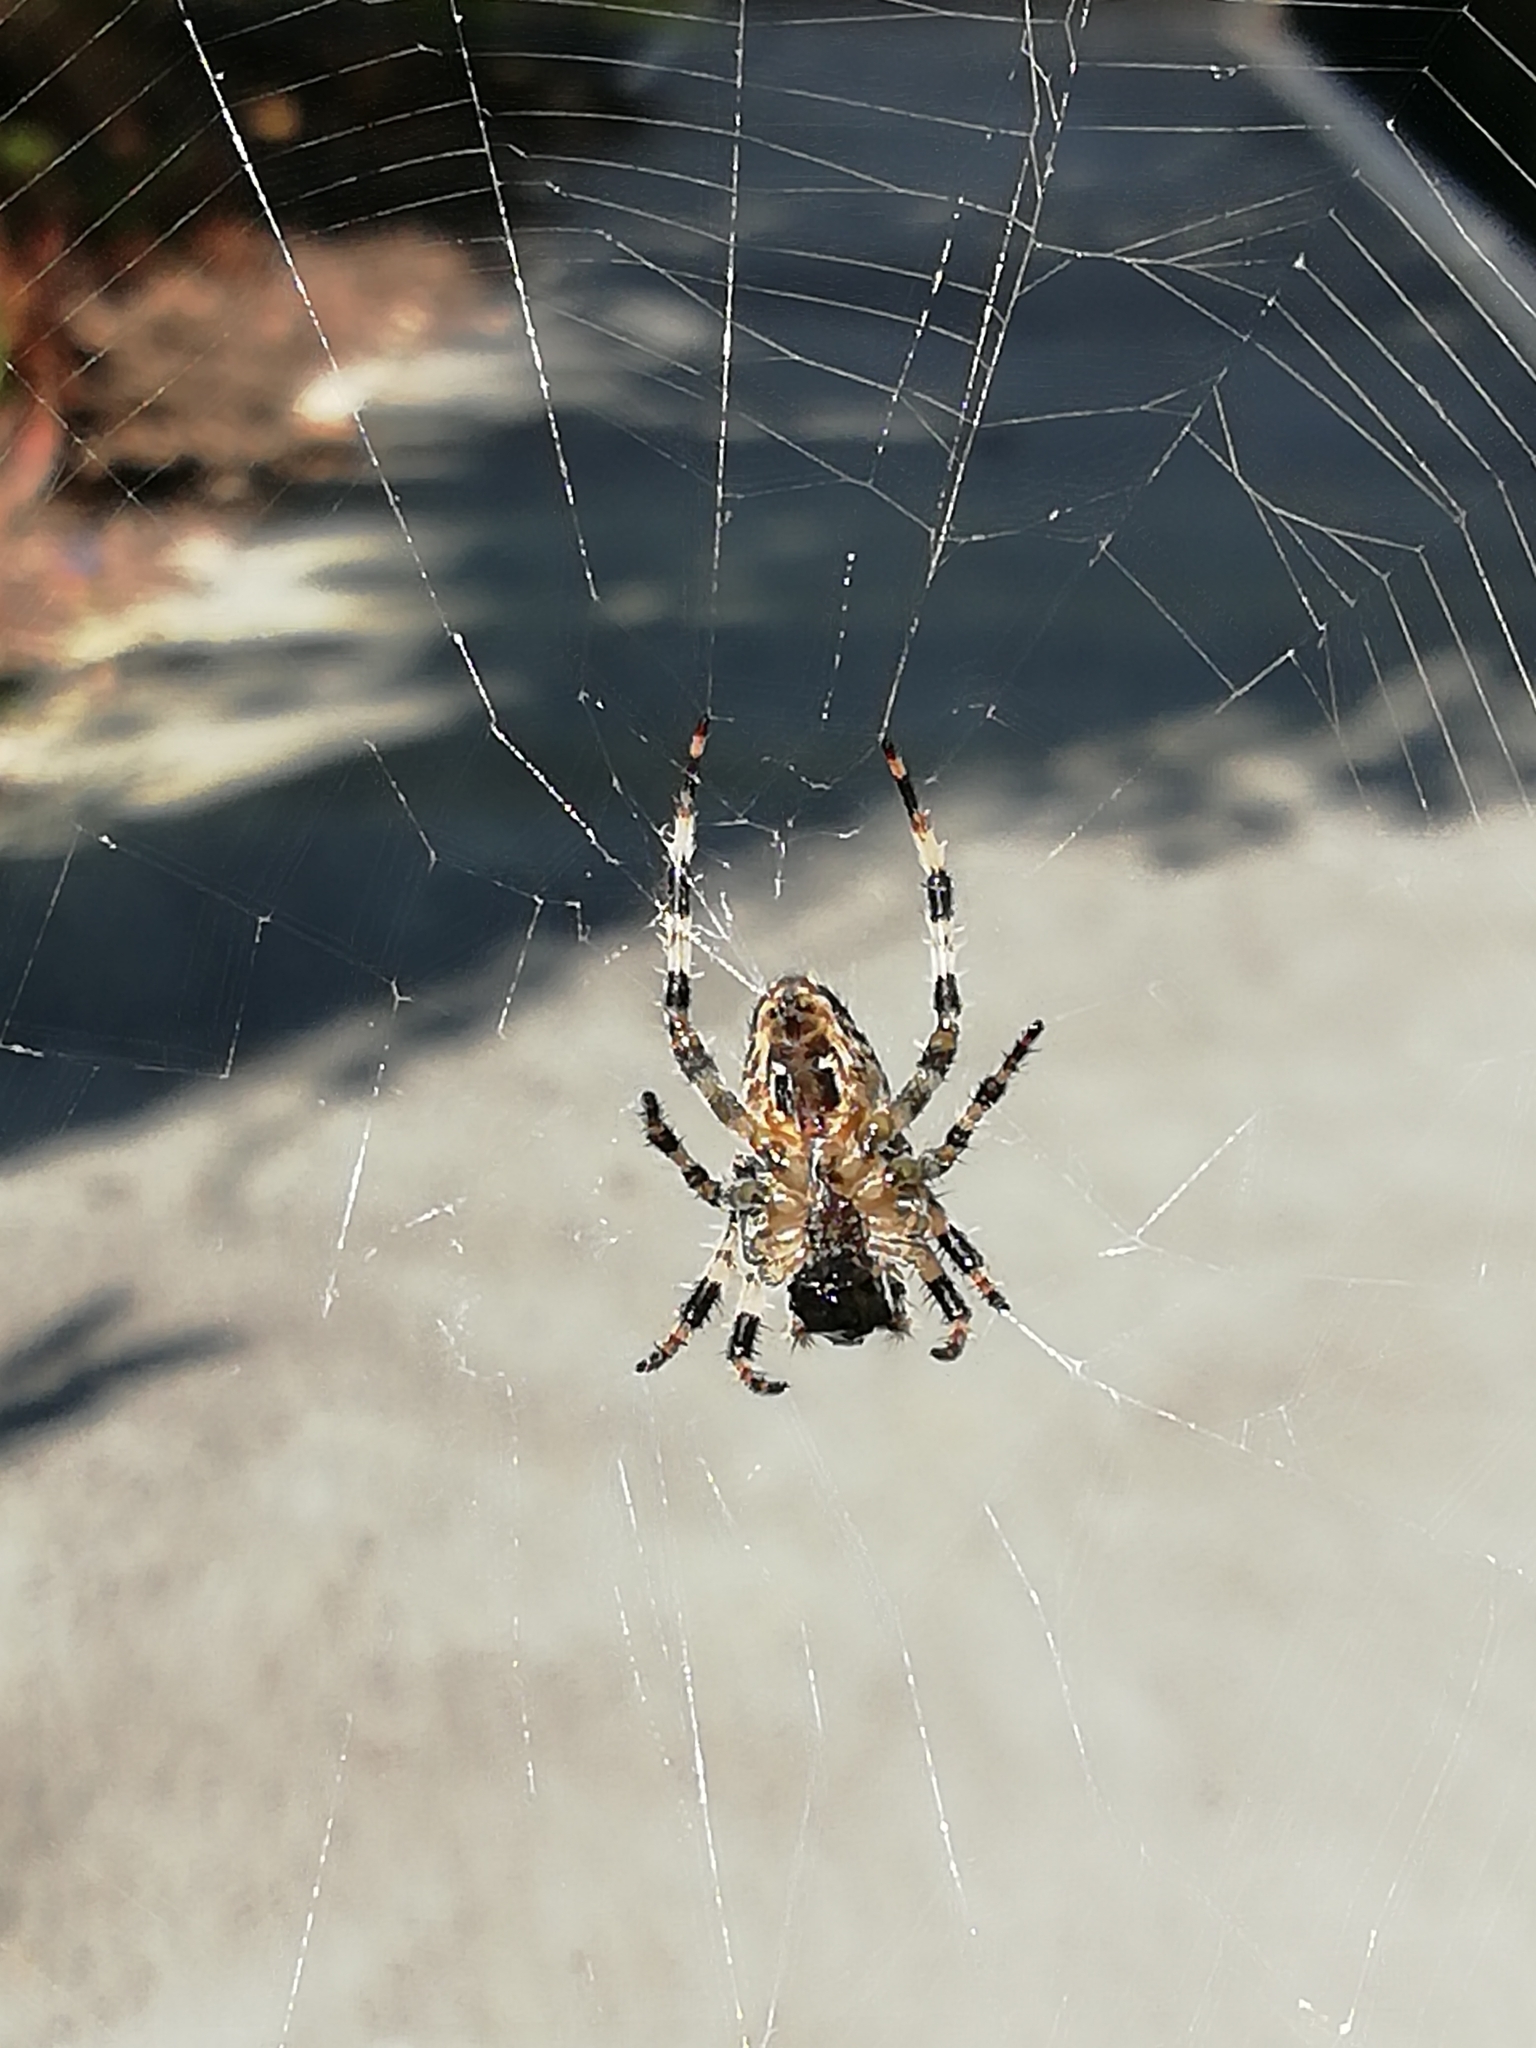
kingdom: Animalia
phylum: Arthropoda
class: Arachnida
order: Araneae
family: Araneidae
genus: Araneus
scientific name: Araneus diadematus
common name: Cross orbweaver
